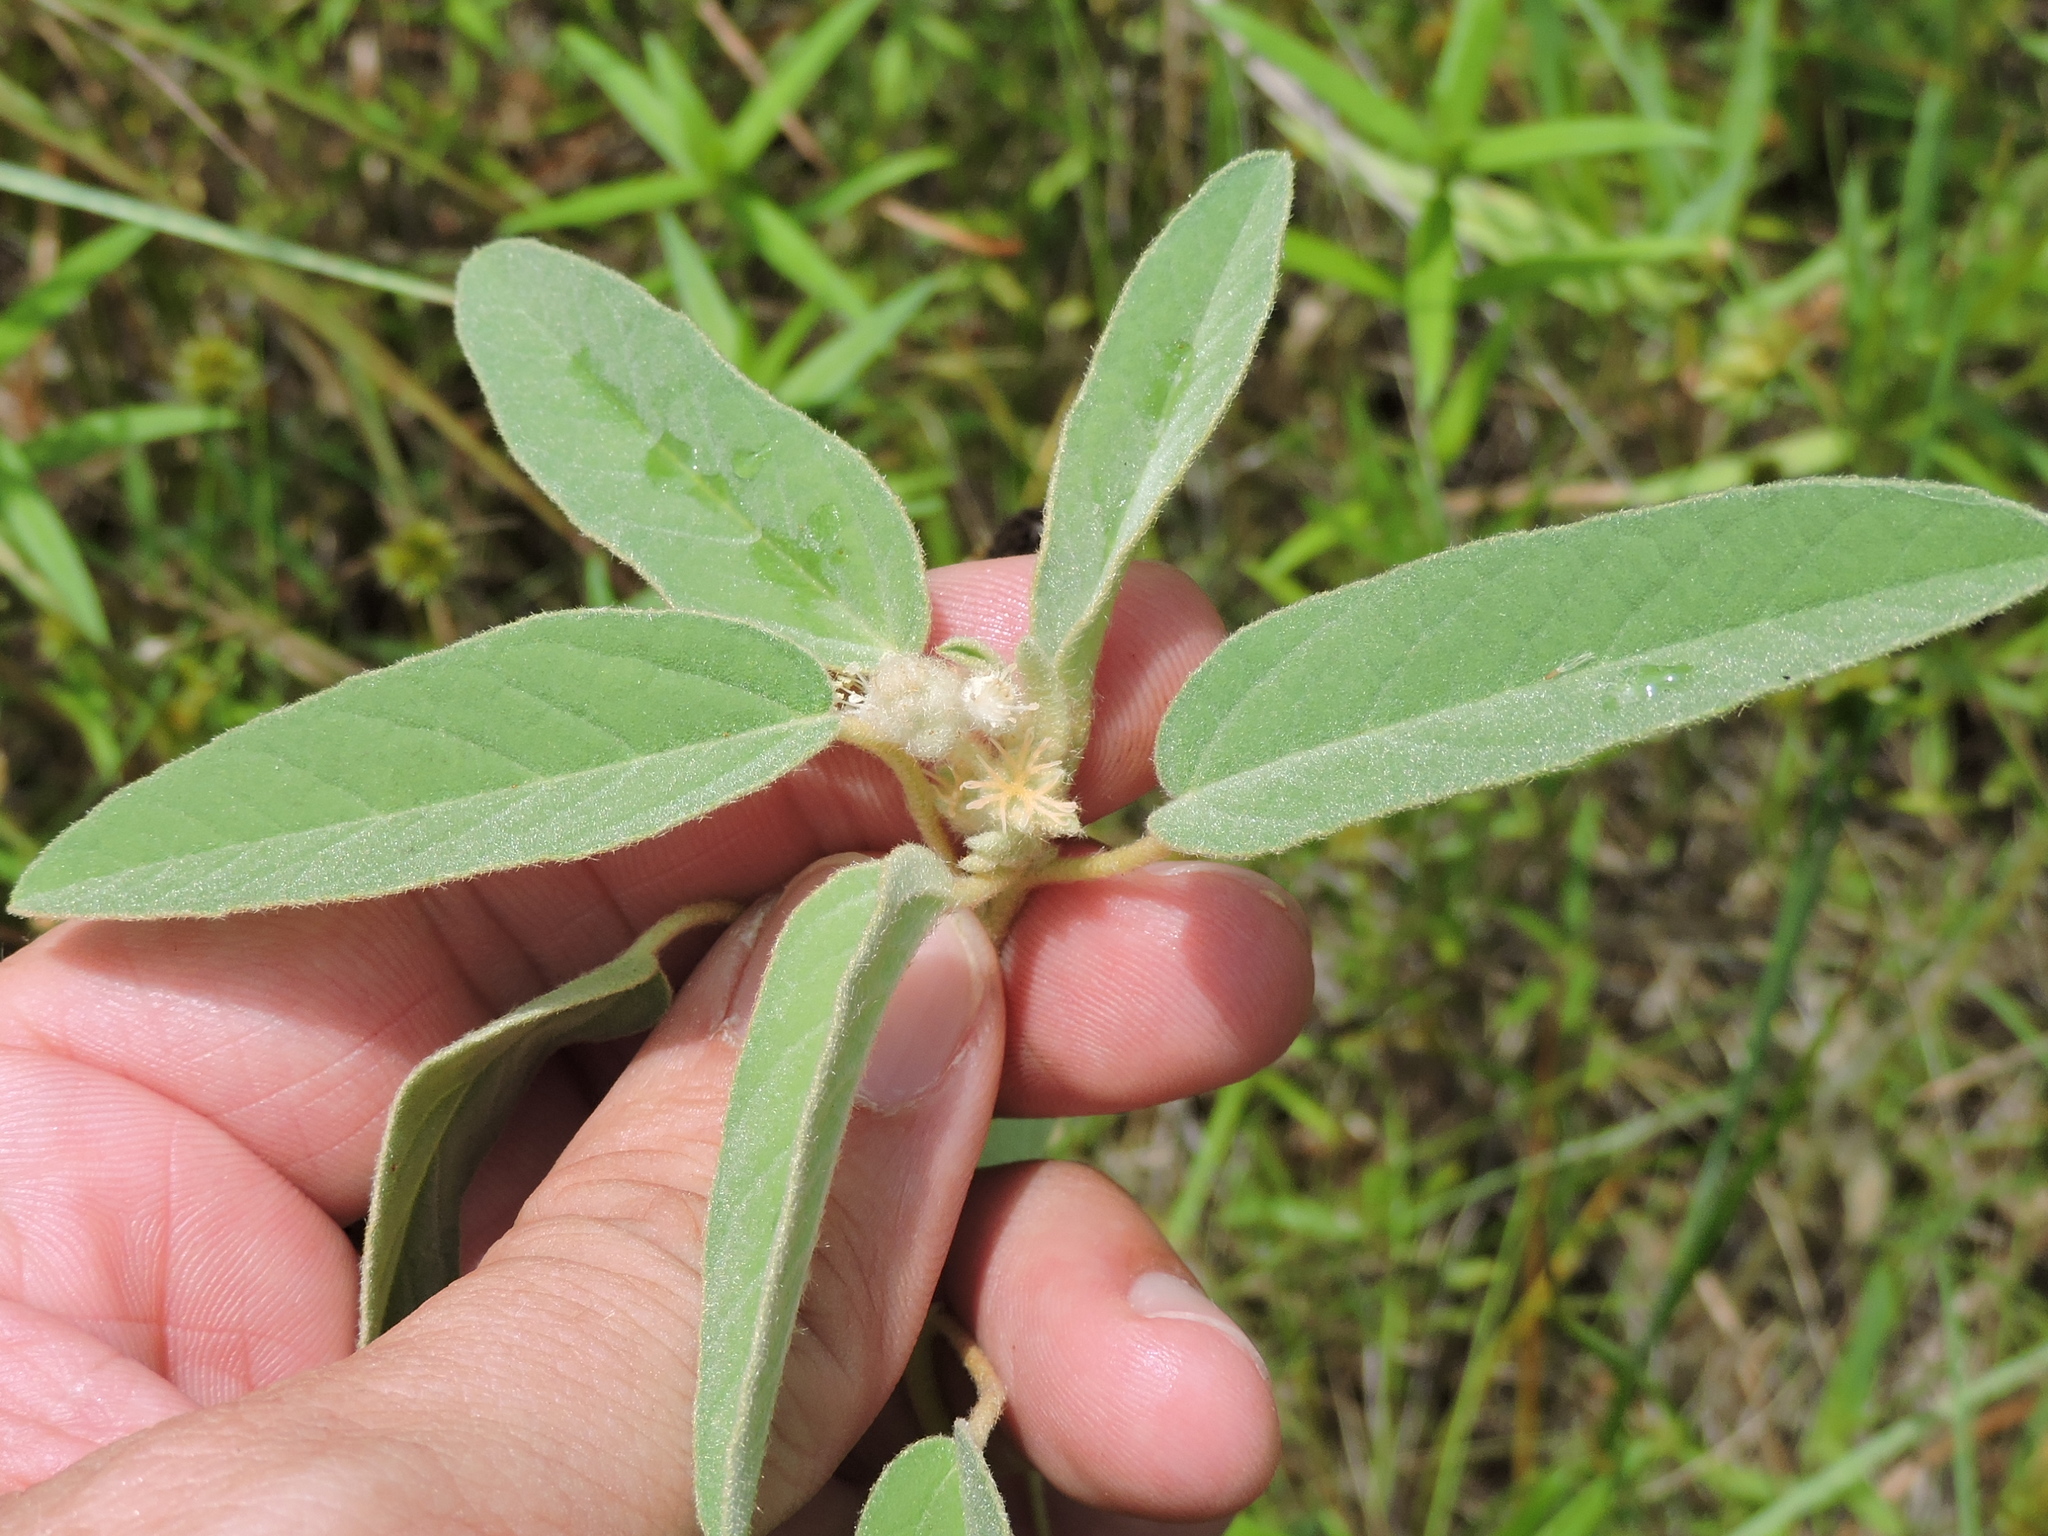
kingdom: Plantae
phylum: Tracheophyta
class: Magnoliopsida
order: Malpighiales
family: Euphorbiaceae
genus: Croton
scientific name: Croton lindheimeri
